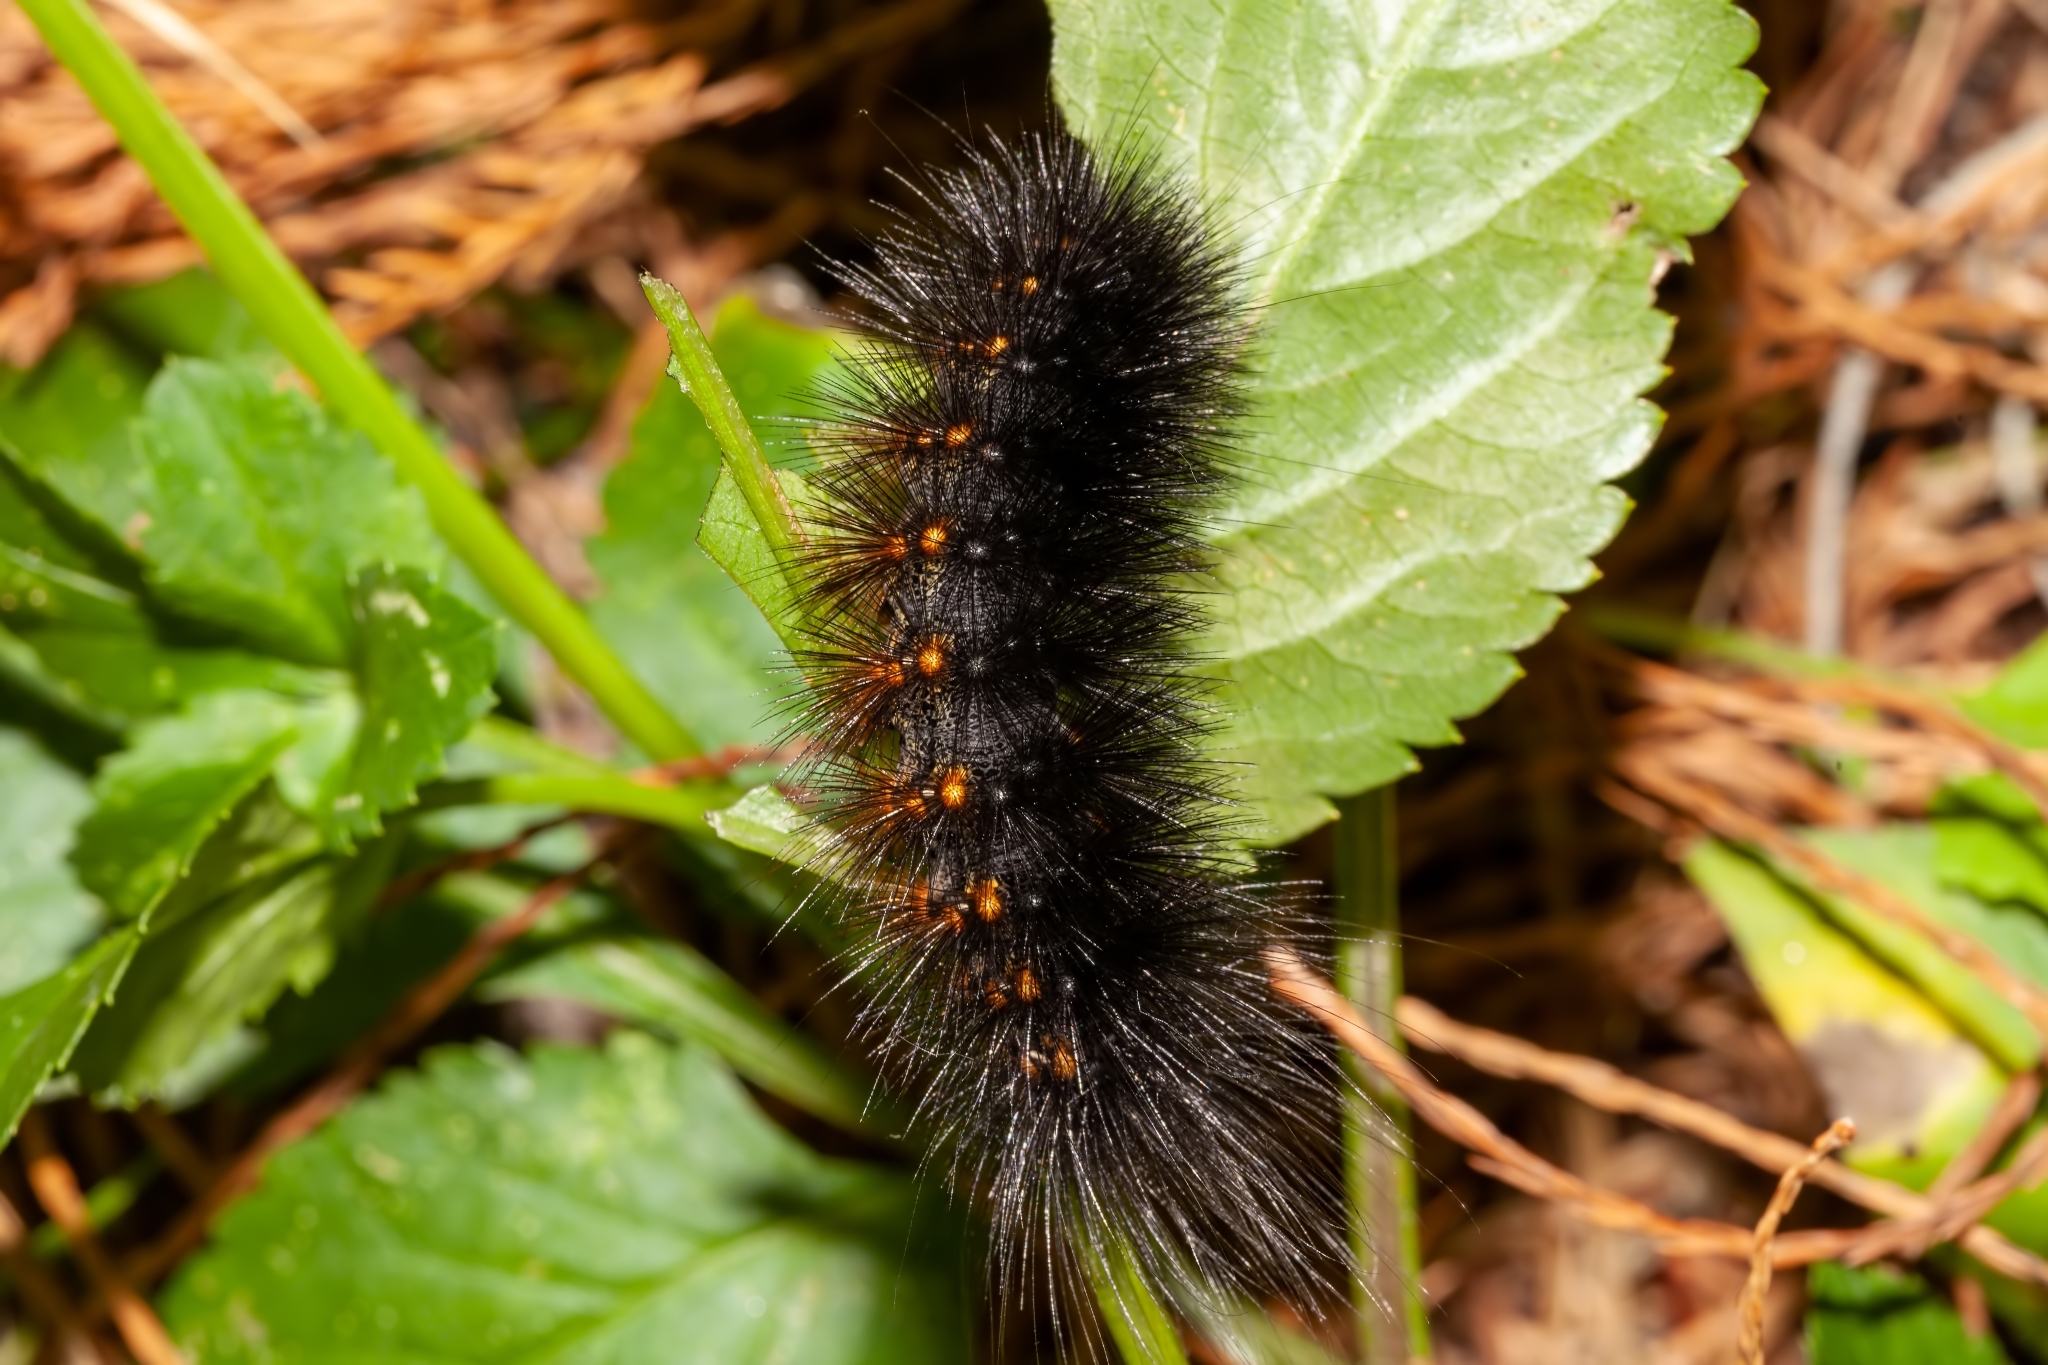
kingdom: Animalia
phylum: Arthropoda
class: Insecta
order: Lepidoptera
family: Erebidae
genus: Estigmene
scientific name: Estigmene acrea
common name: Salt marsh moth
